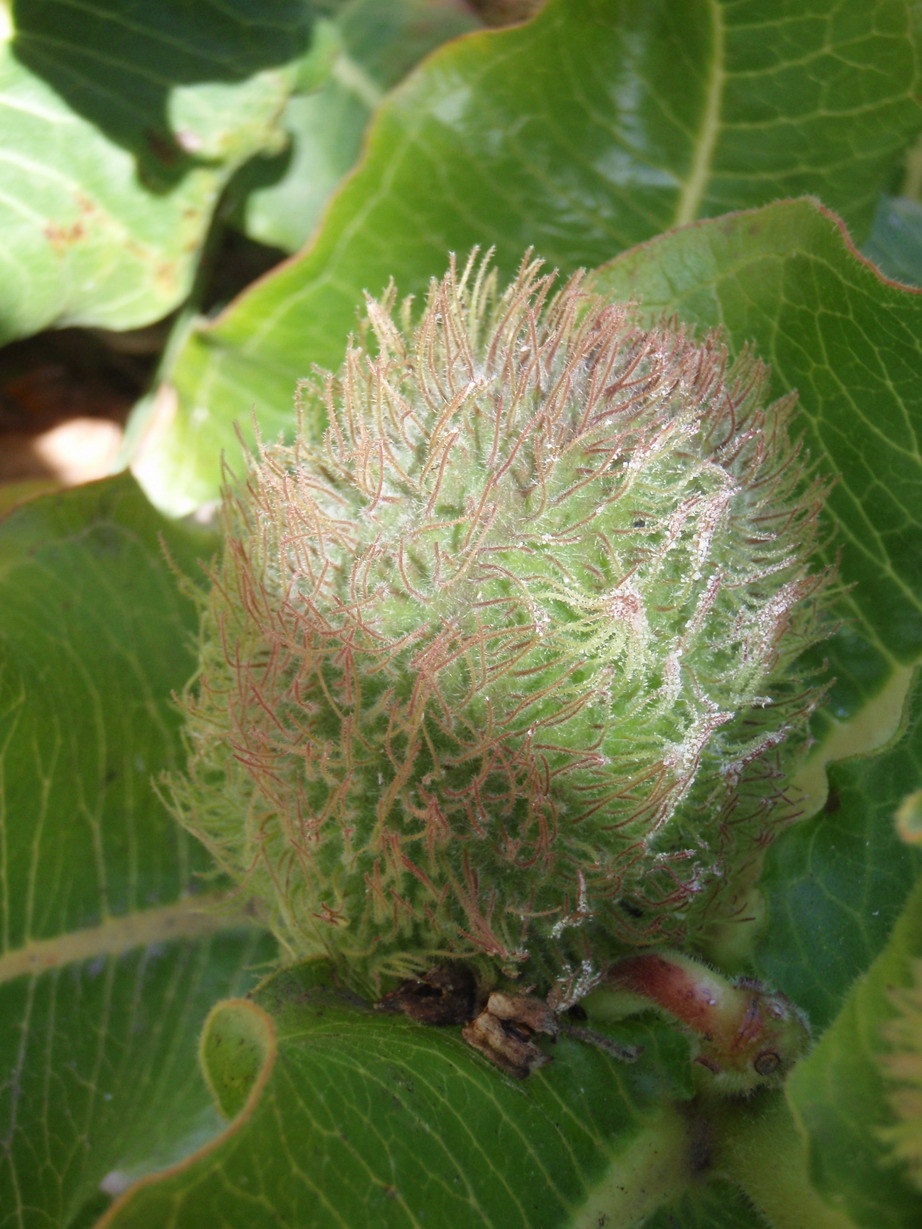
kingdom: Plantae
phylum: Tracheophyta
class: Magnoliopsida
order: Gentianales
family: Apocynaceae
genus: Xysmalobium
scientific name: Xysmalobium undulatum
